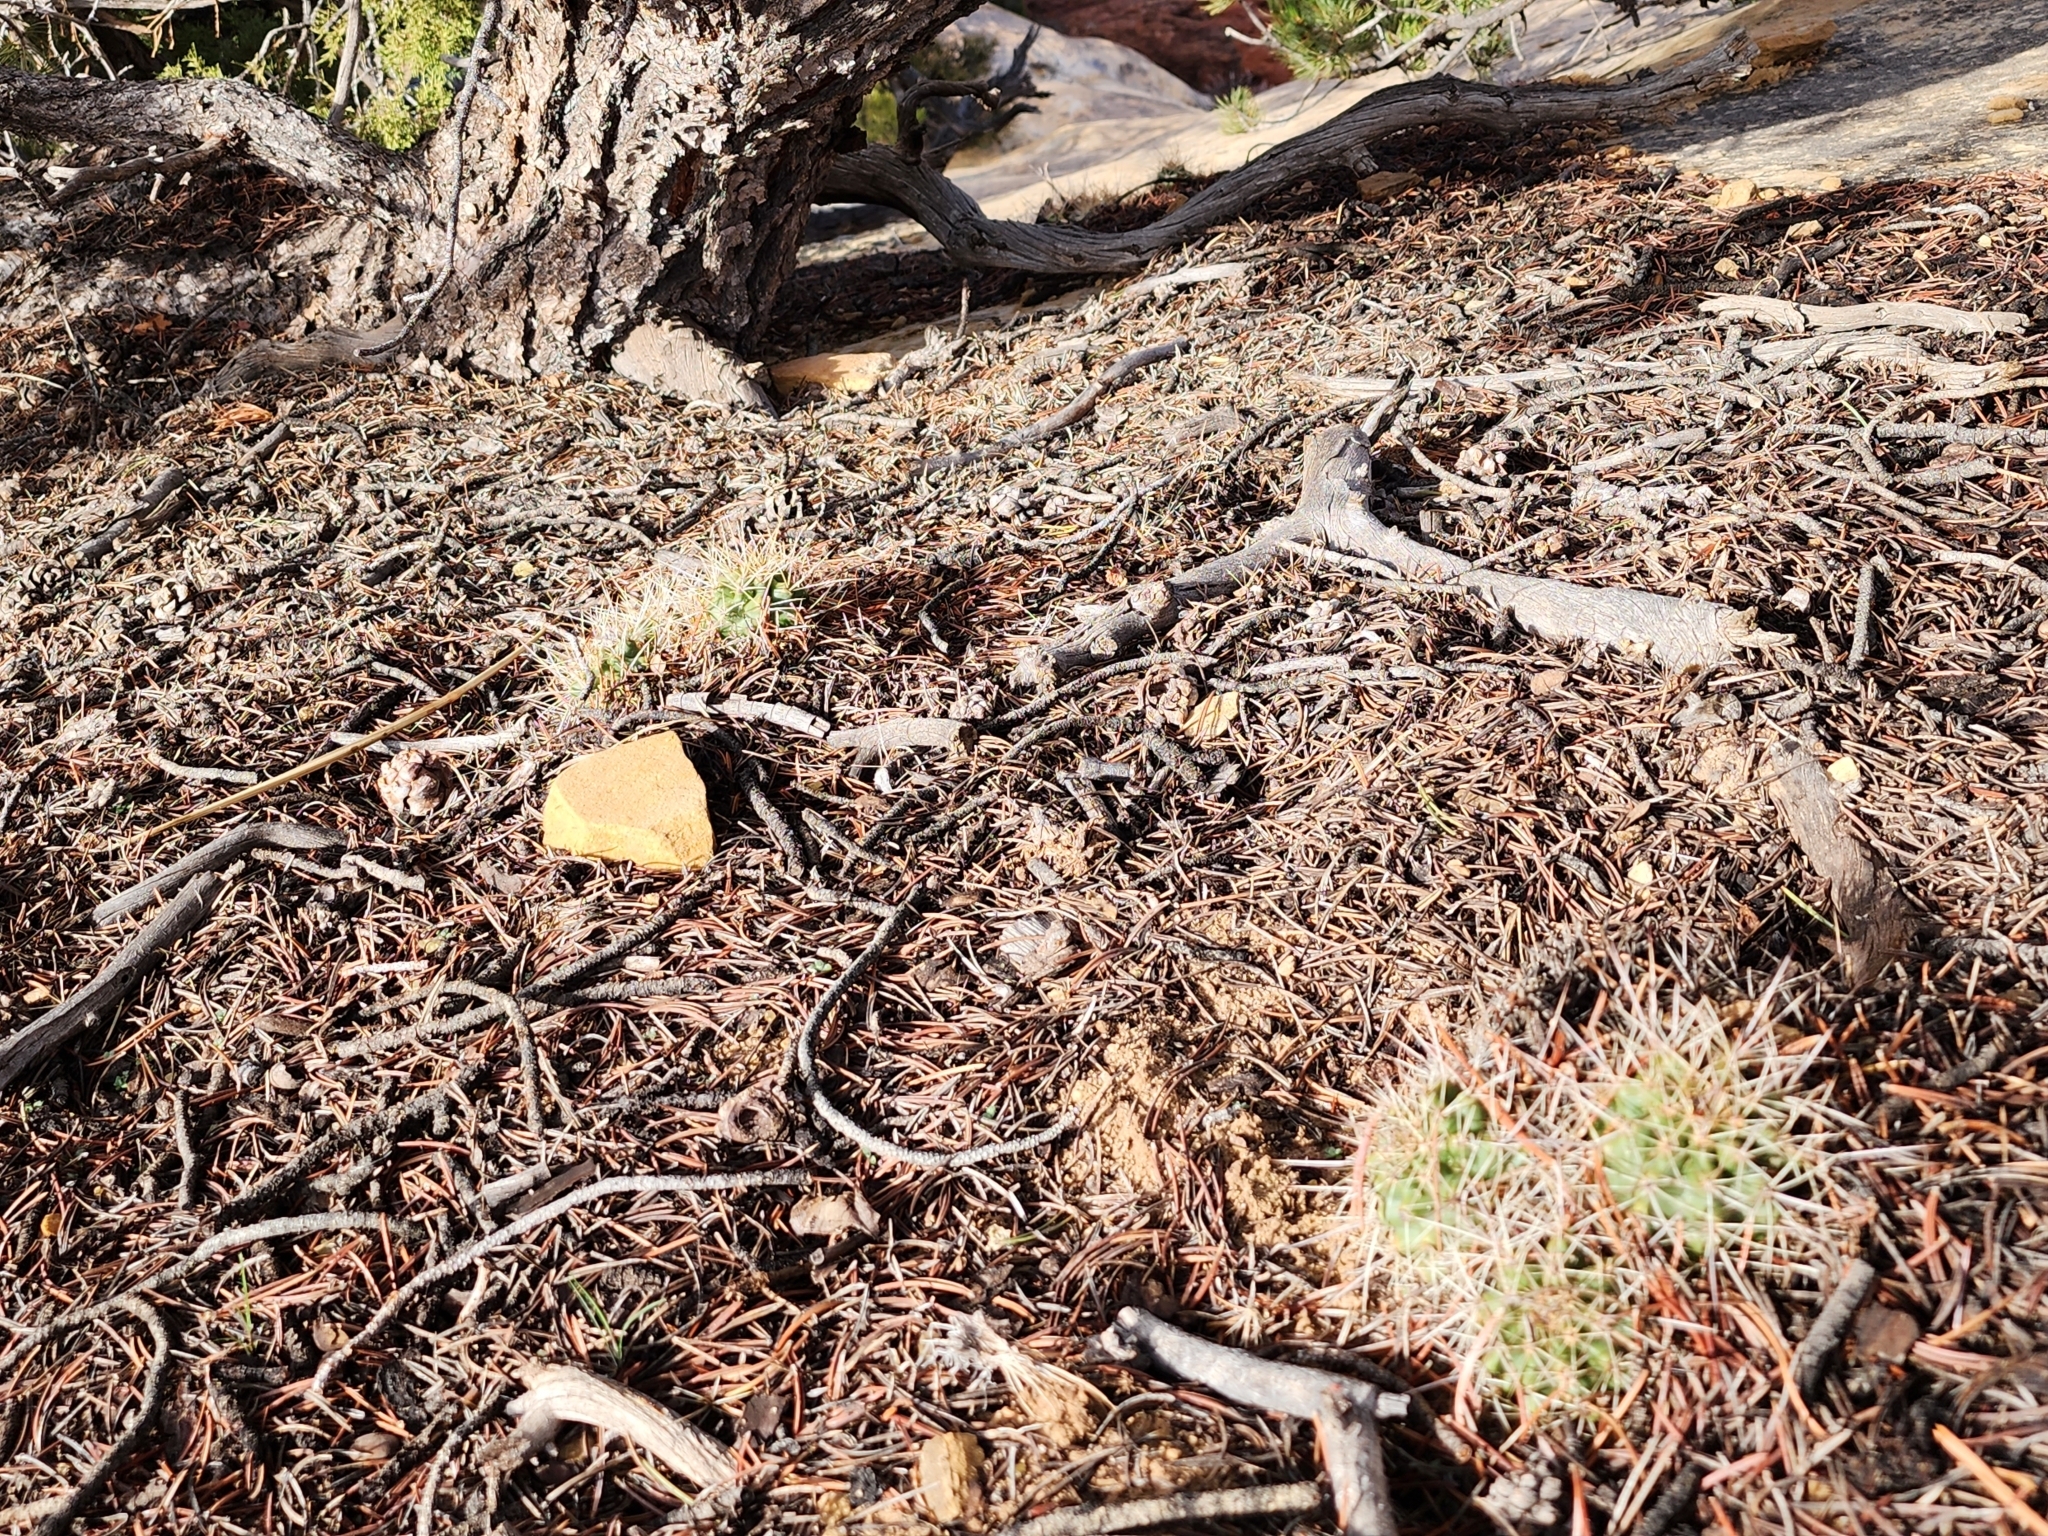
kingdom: Plantae
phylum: Tracheophyta
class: Magnoliopsida
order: Caryophyllales
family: Cactaceae
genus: Echinocereus
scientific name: Echinocereus triglochidiatus
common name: Claretcup hedgehog
